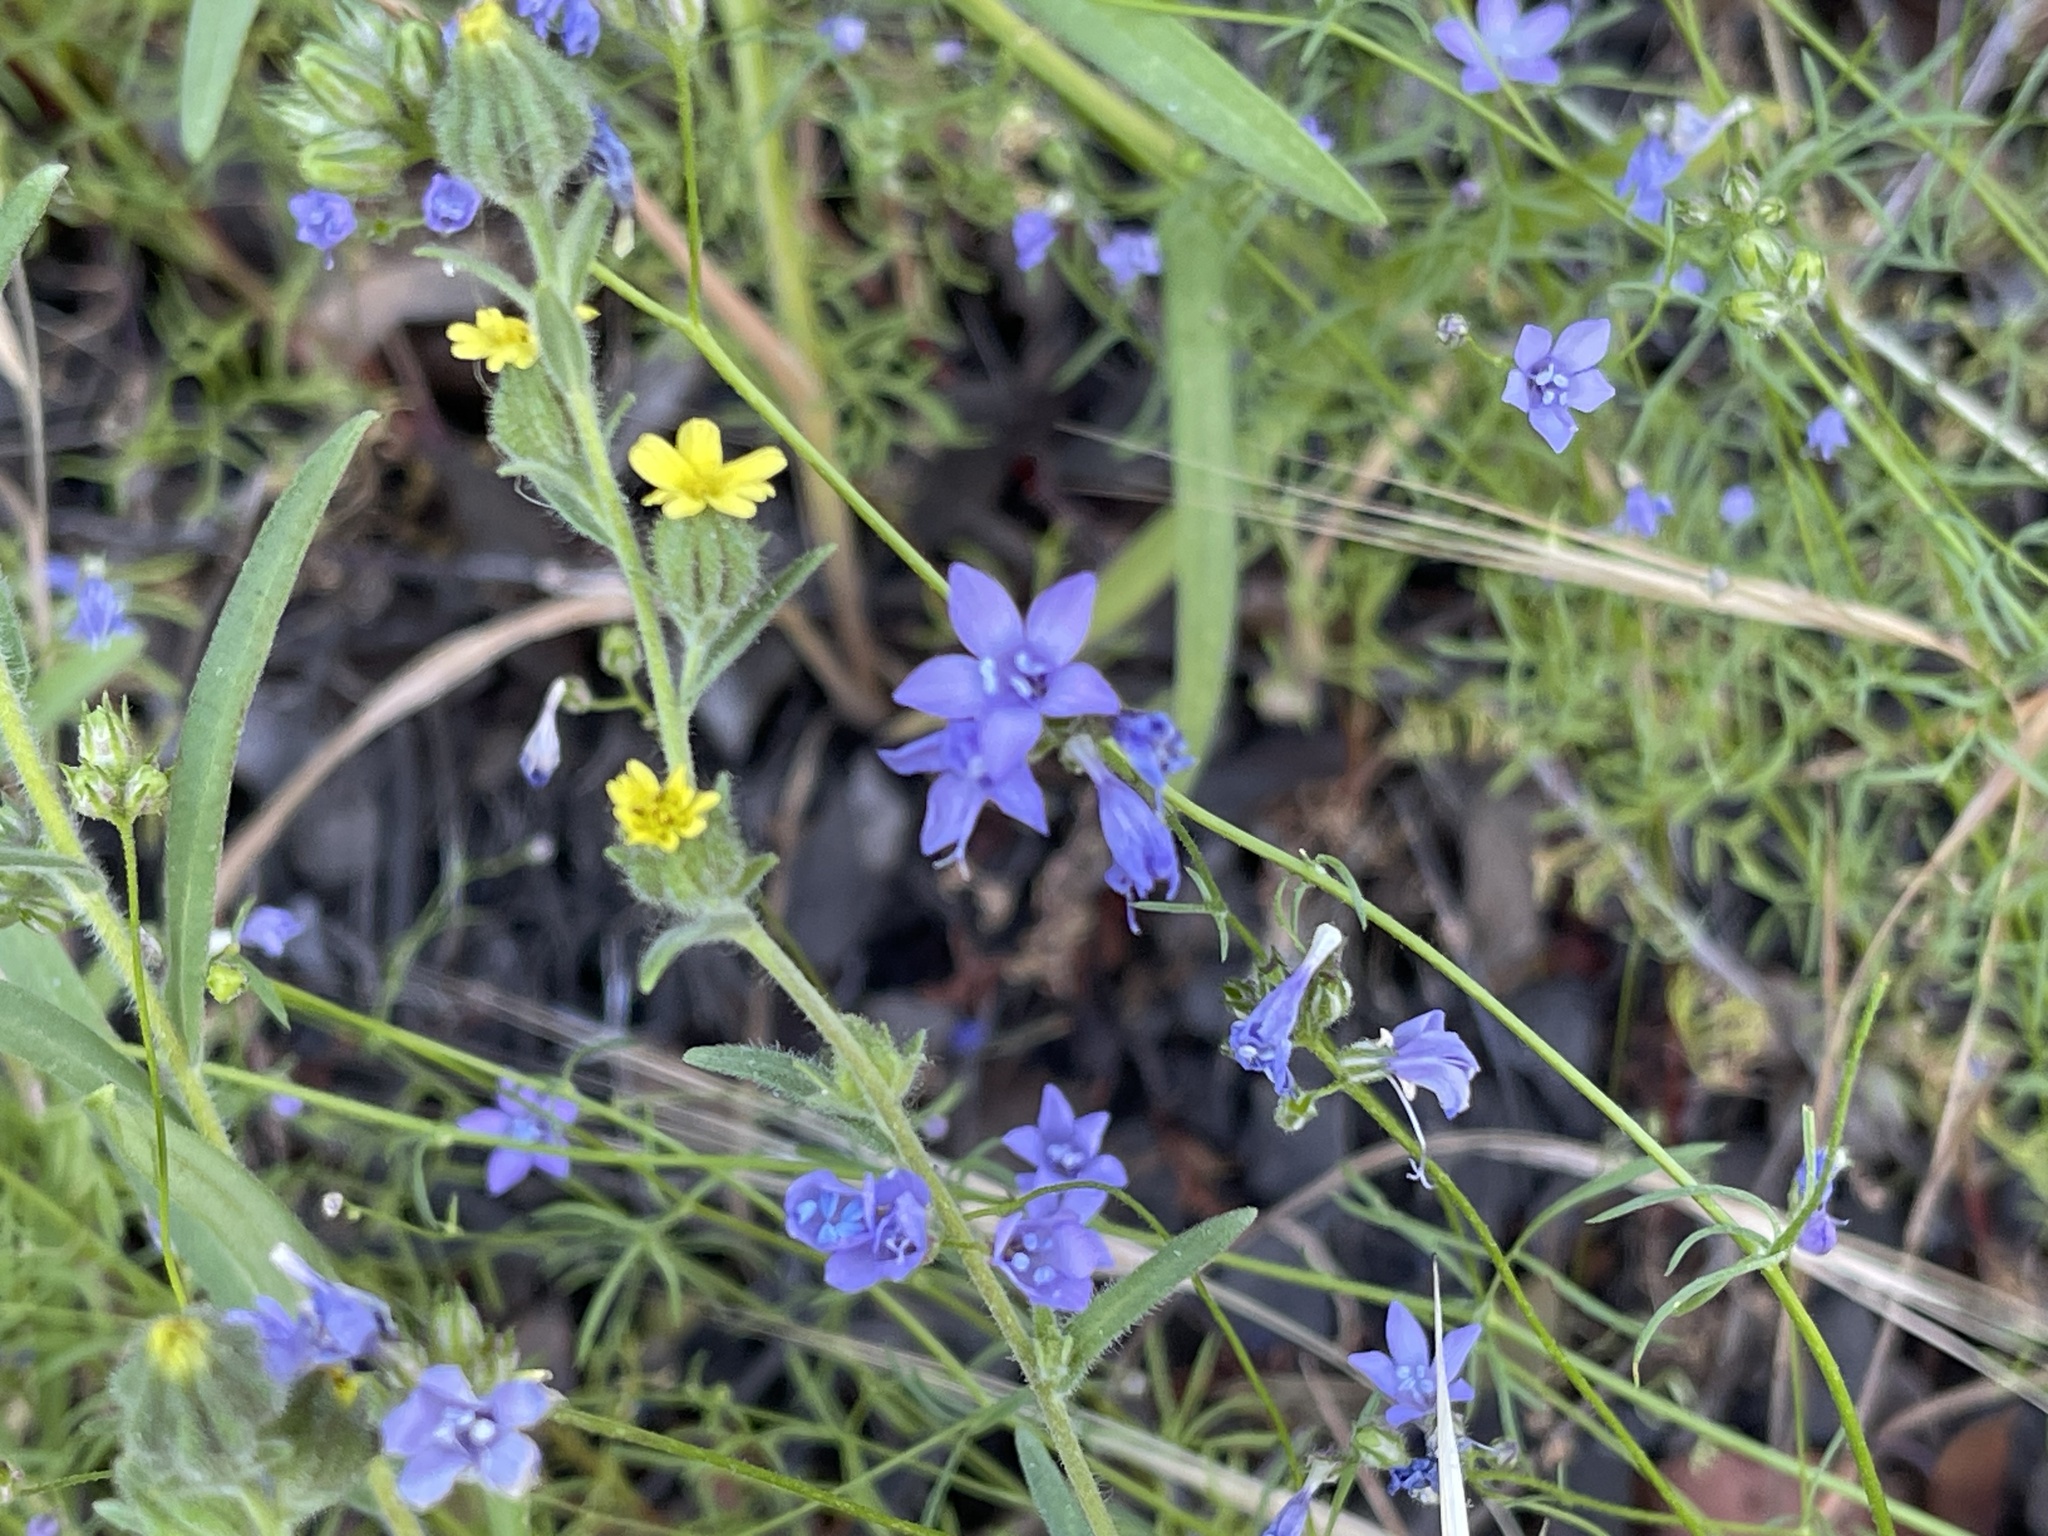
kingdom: Plantae
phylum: Tracheophyta
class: Magnoliopsida
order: Ericales
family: Polemoniaceae
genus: Gilia
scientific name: Gilia achilleifolia
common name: California gily-flower
